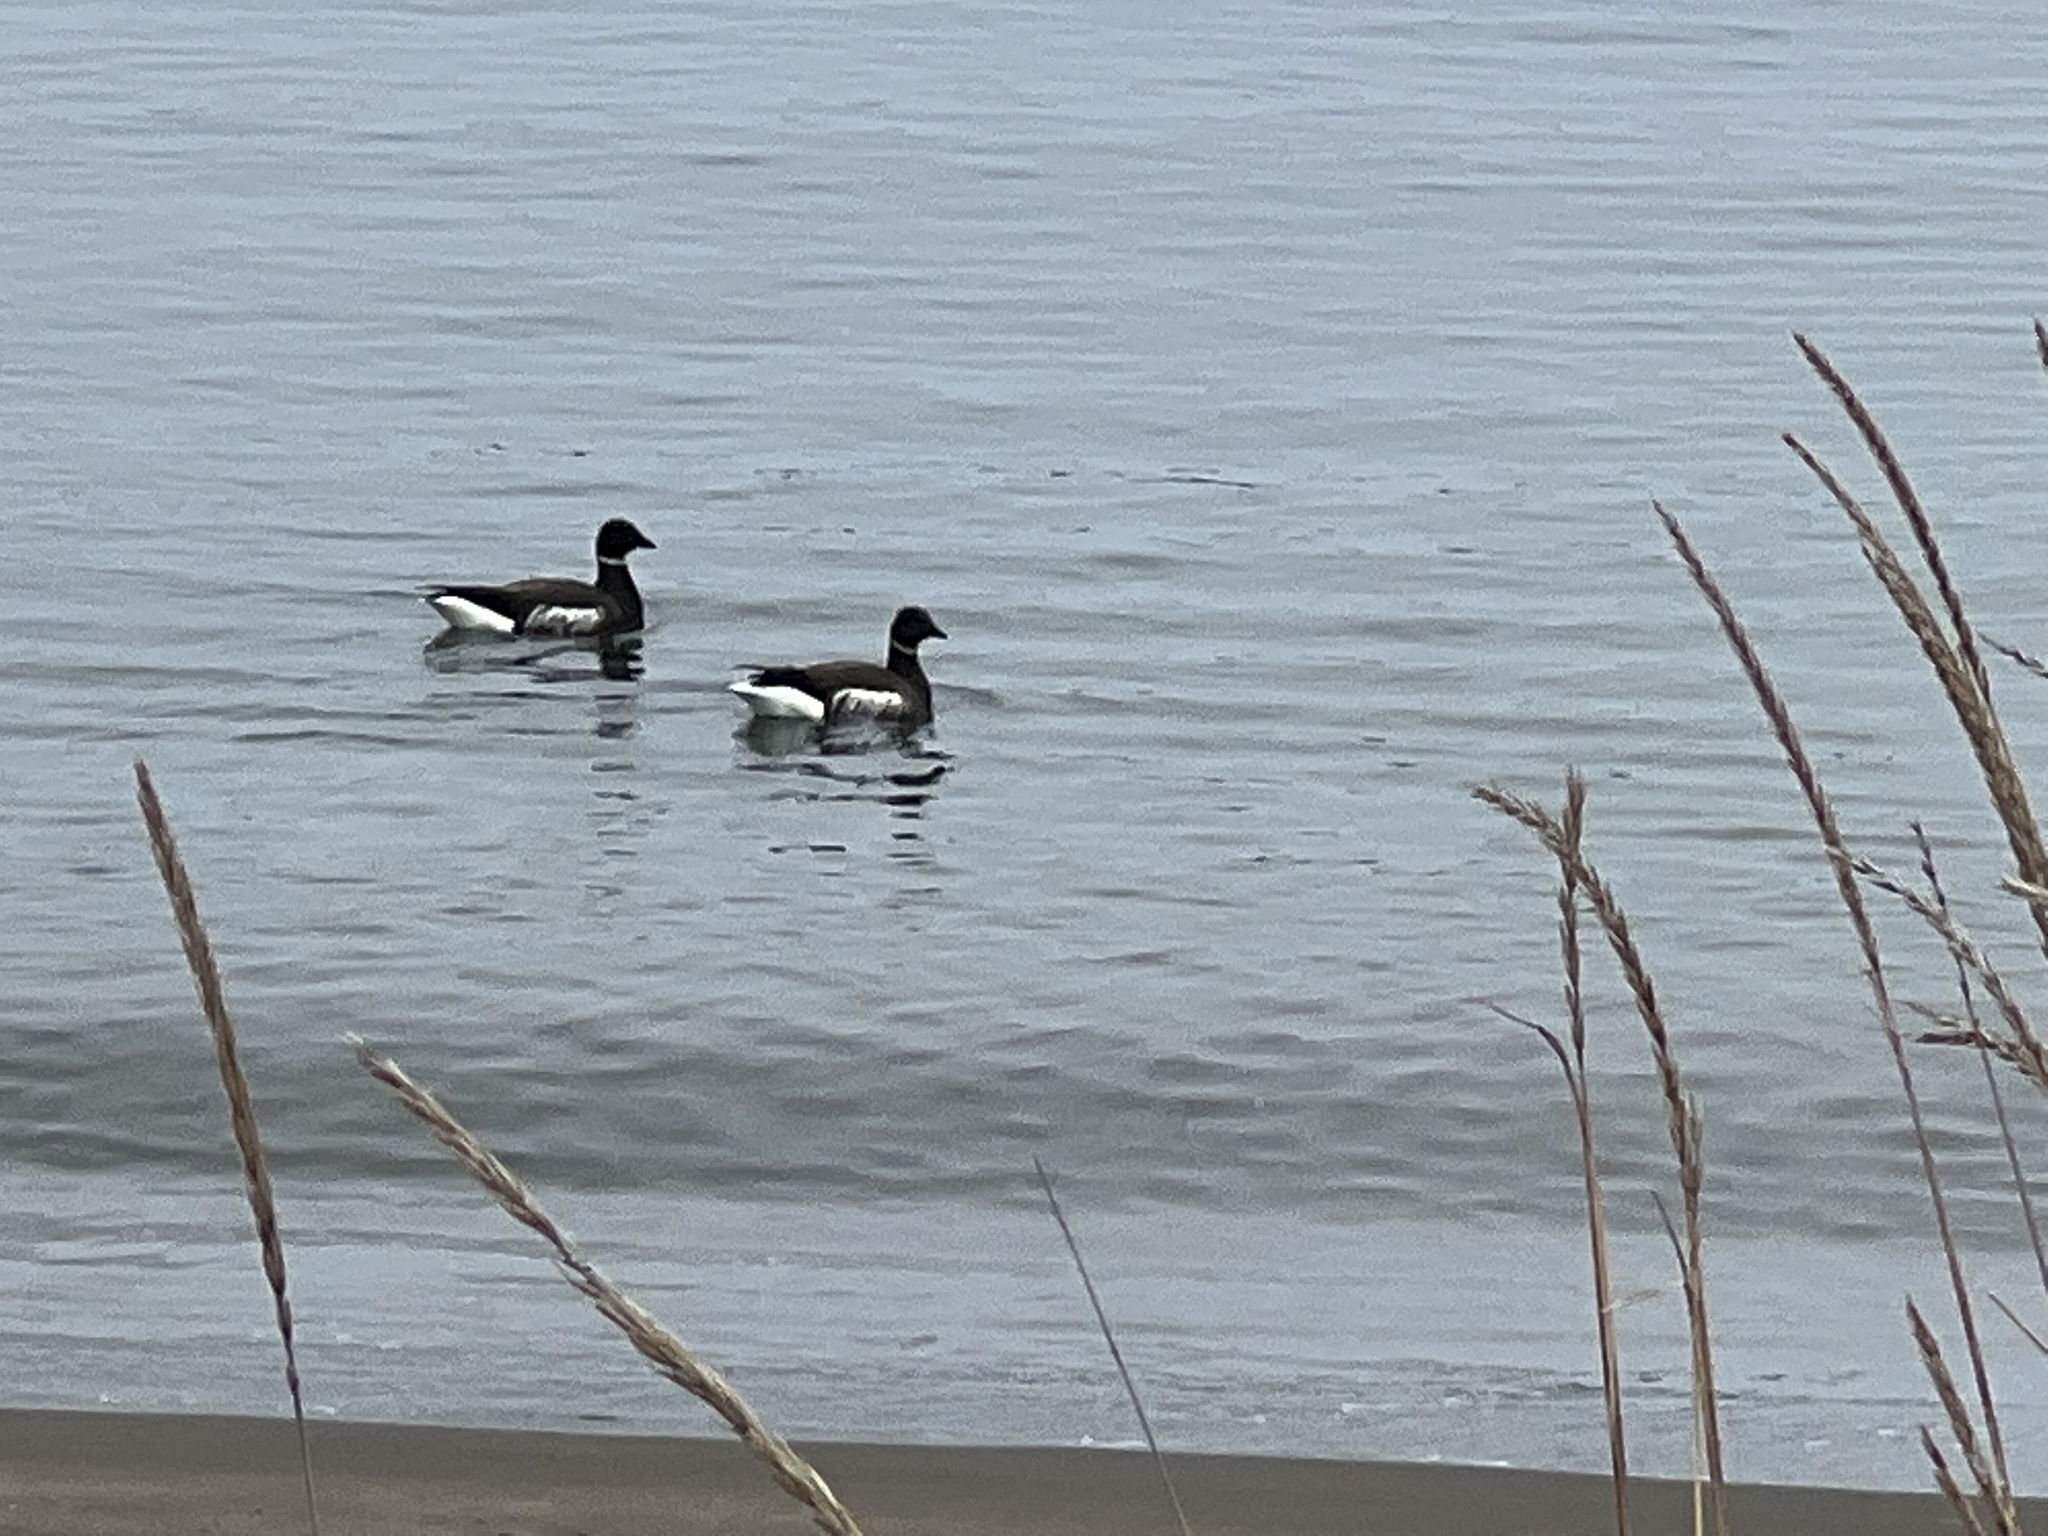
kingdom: Animalia
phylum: Chordata
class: Aves
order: Anseriformes
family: Anatidae
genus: Branta
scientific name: Branta bernicla
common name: Brant goose
